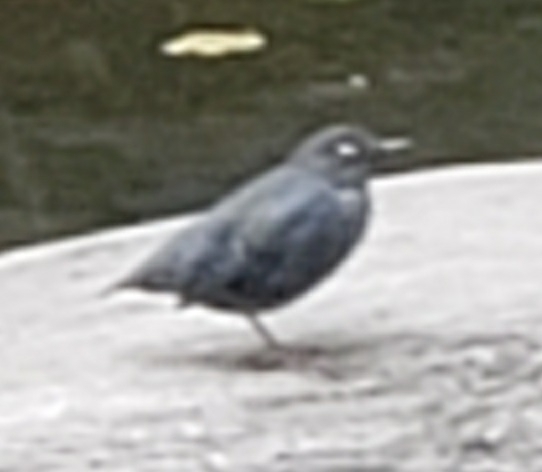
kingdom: Animalia
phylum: Chordata
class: Aves
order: Passeriformes
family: Cinclidae
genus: Cinclus
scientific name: Cinclus mexicanus
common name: American dipper
